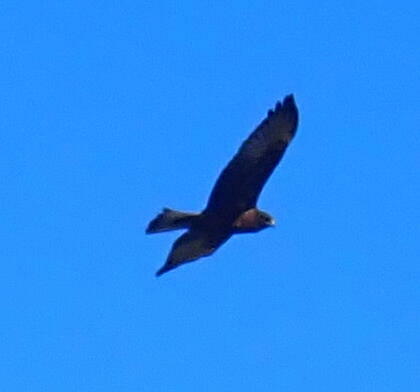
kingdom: Animalia
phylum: Chordata
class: Aves
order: Accipitriformes
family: Accipitridae
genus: Circus
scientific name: Circus approximans
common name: Swamp harrier
